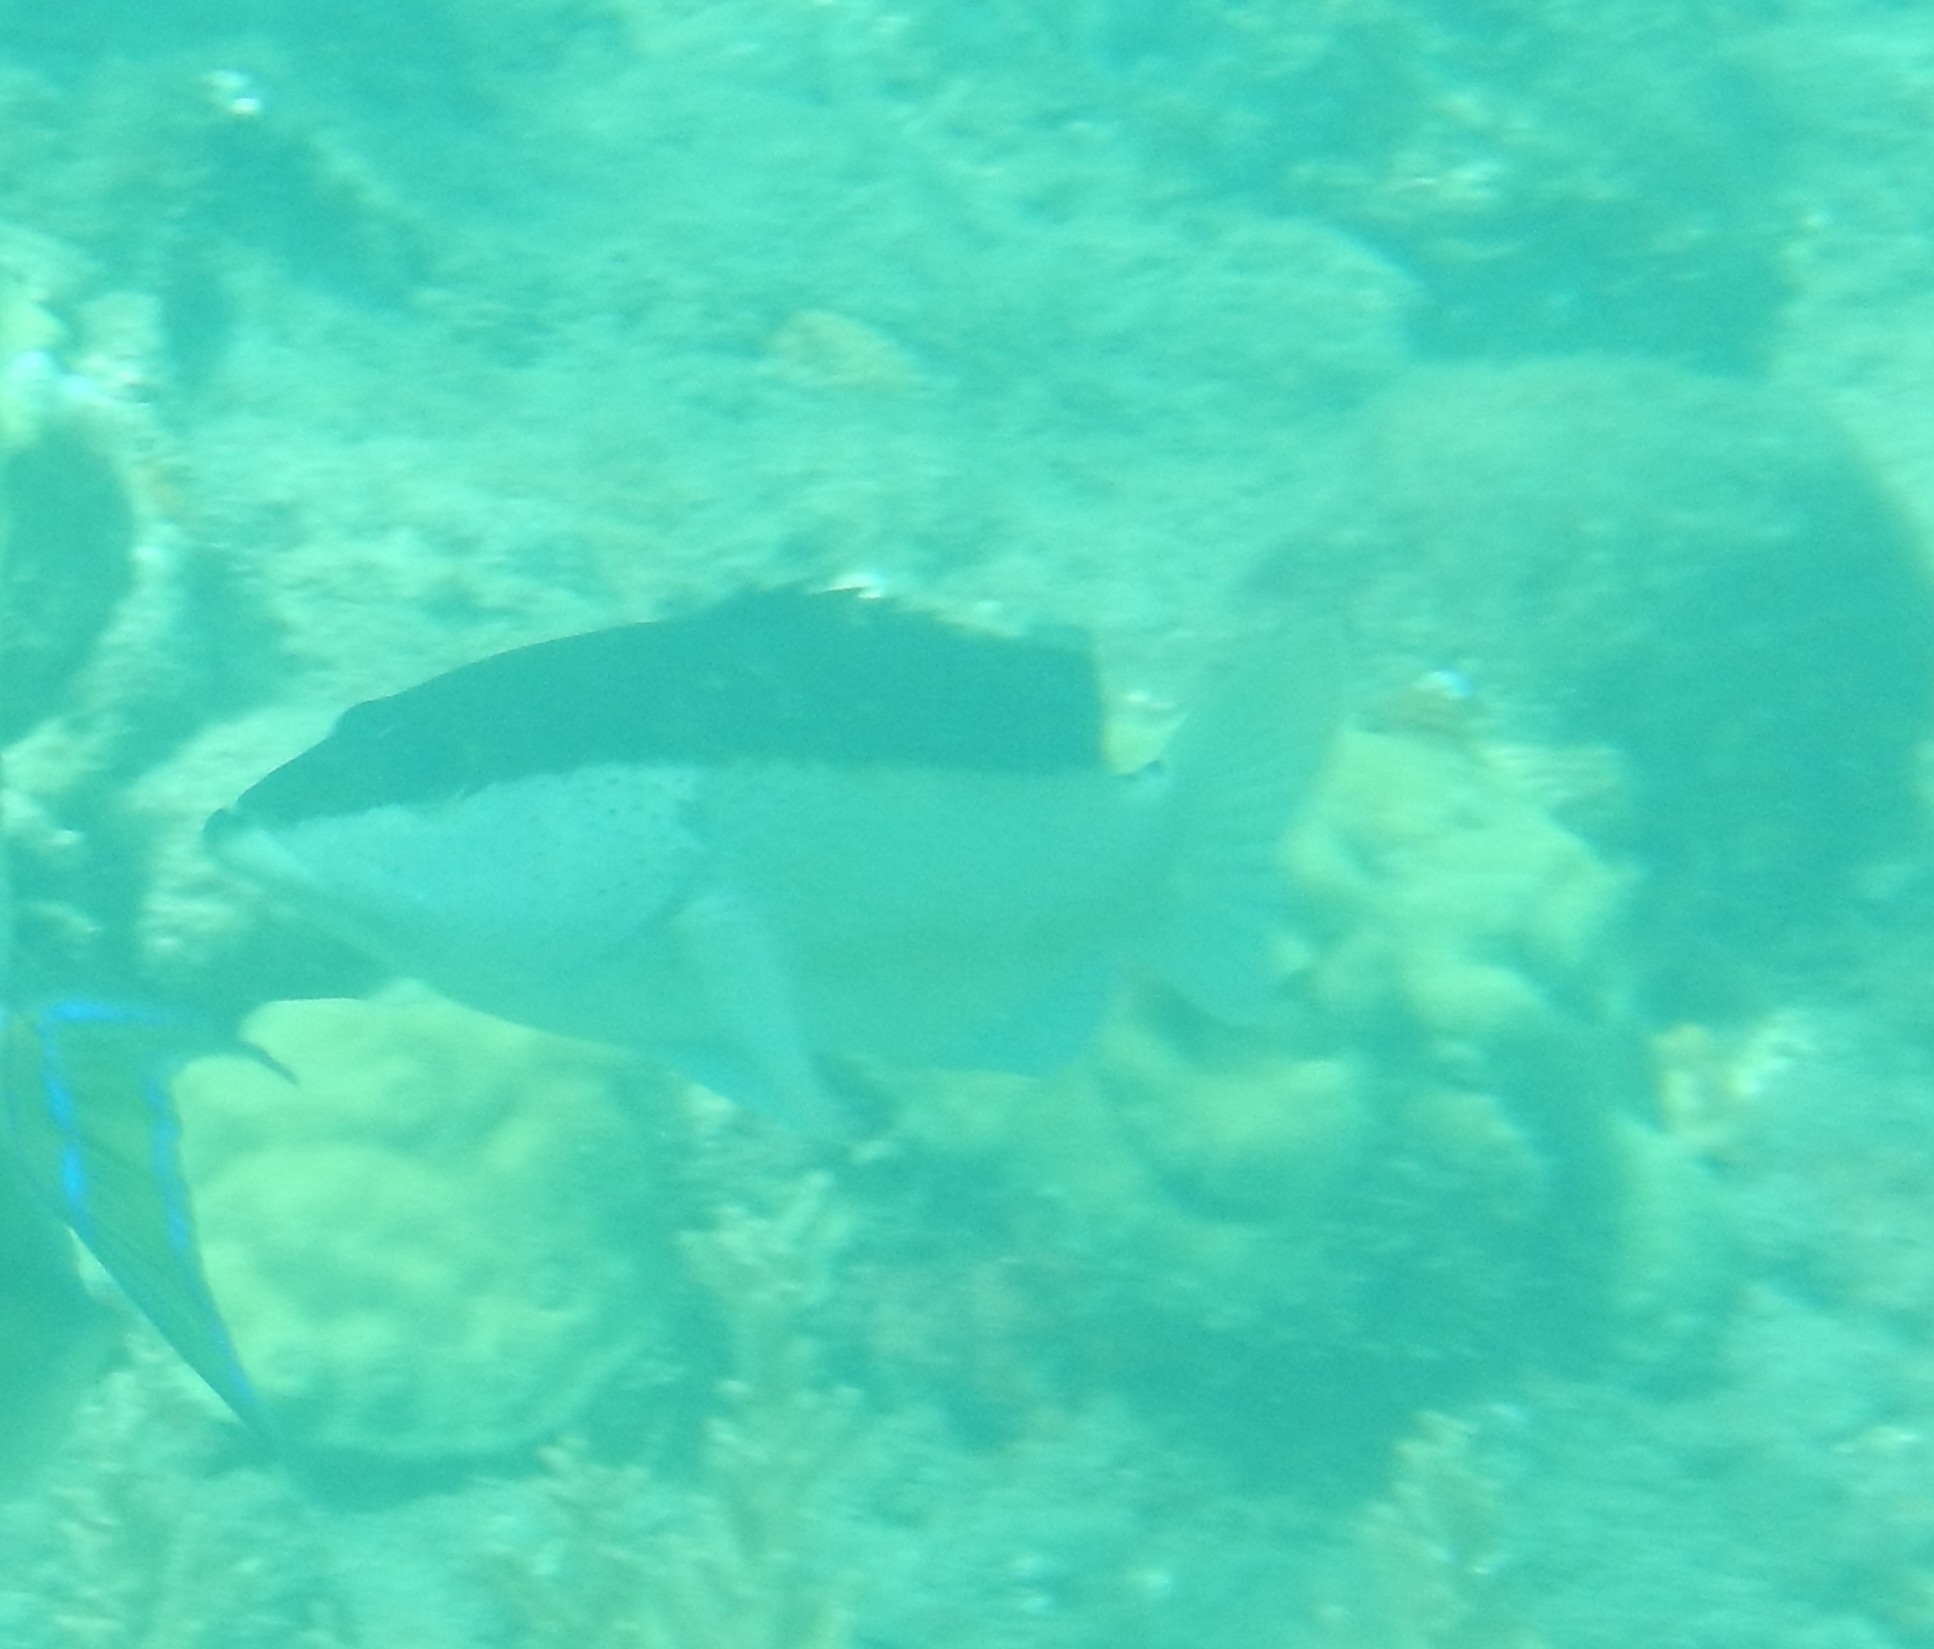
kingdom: Animalia
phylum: Chordata
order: Perciformes
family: Serranidae
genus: Cephalopholis
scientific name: Cephalopholis fulva
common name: Butterfish
